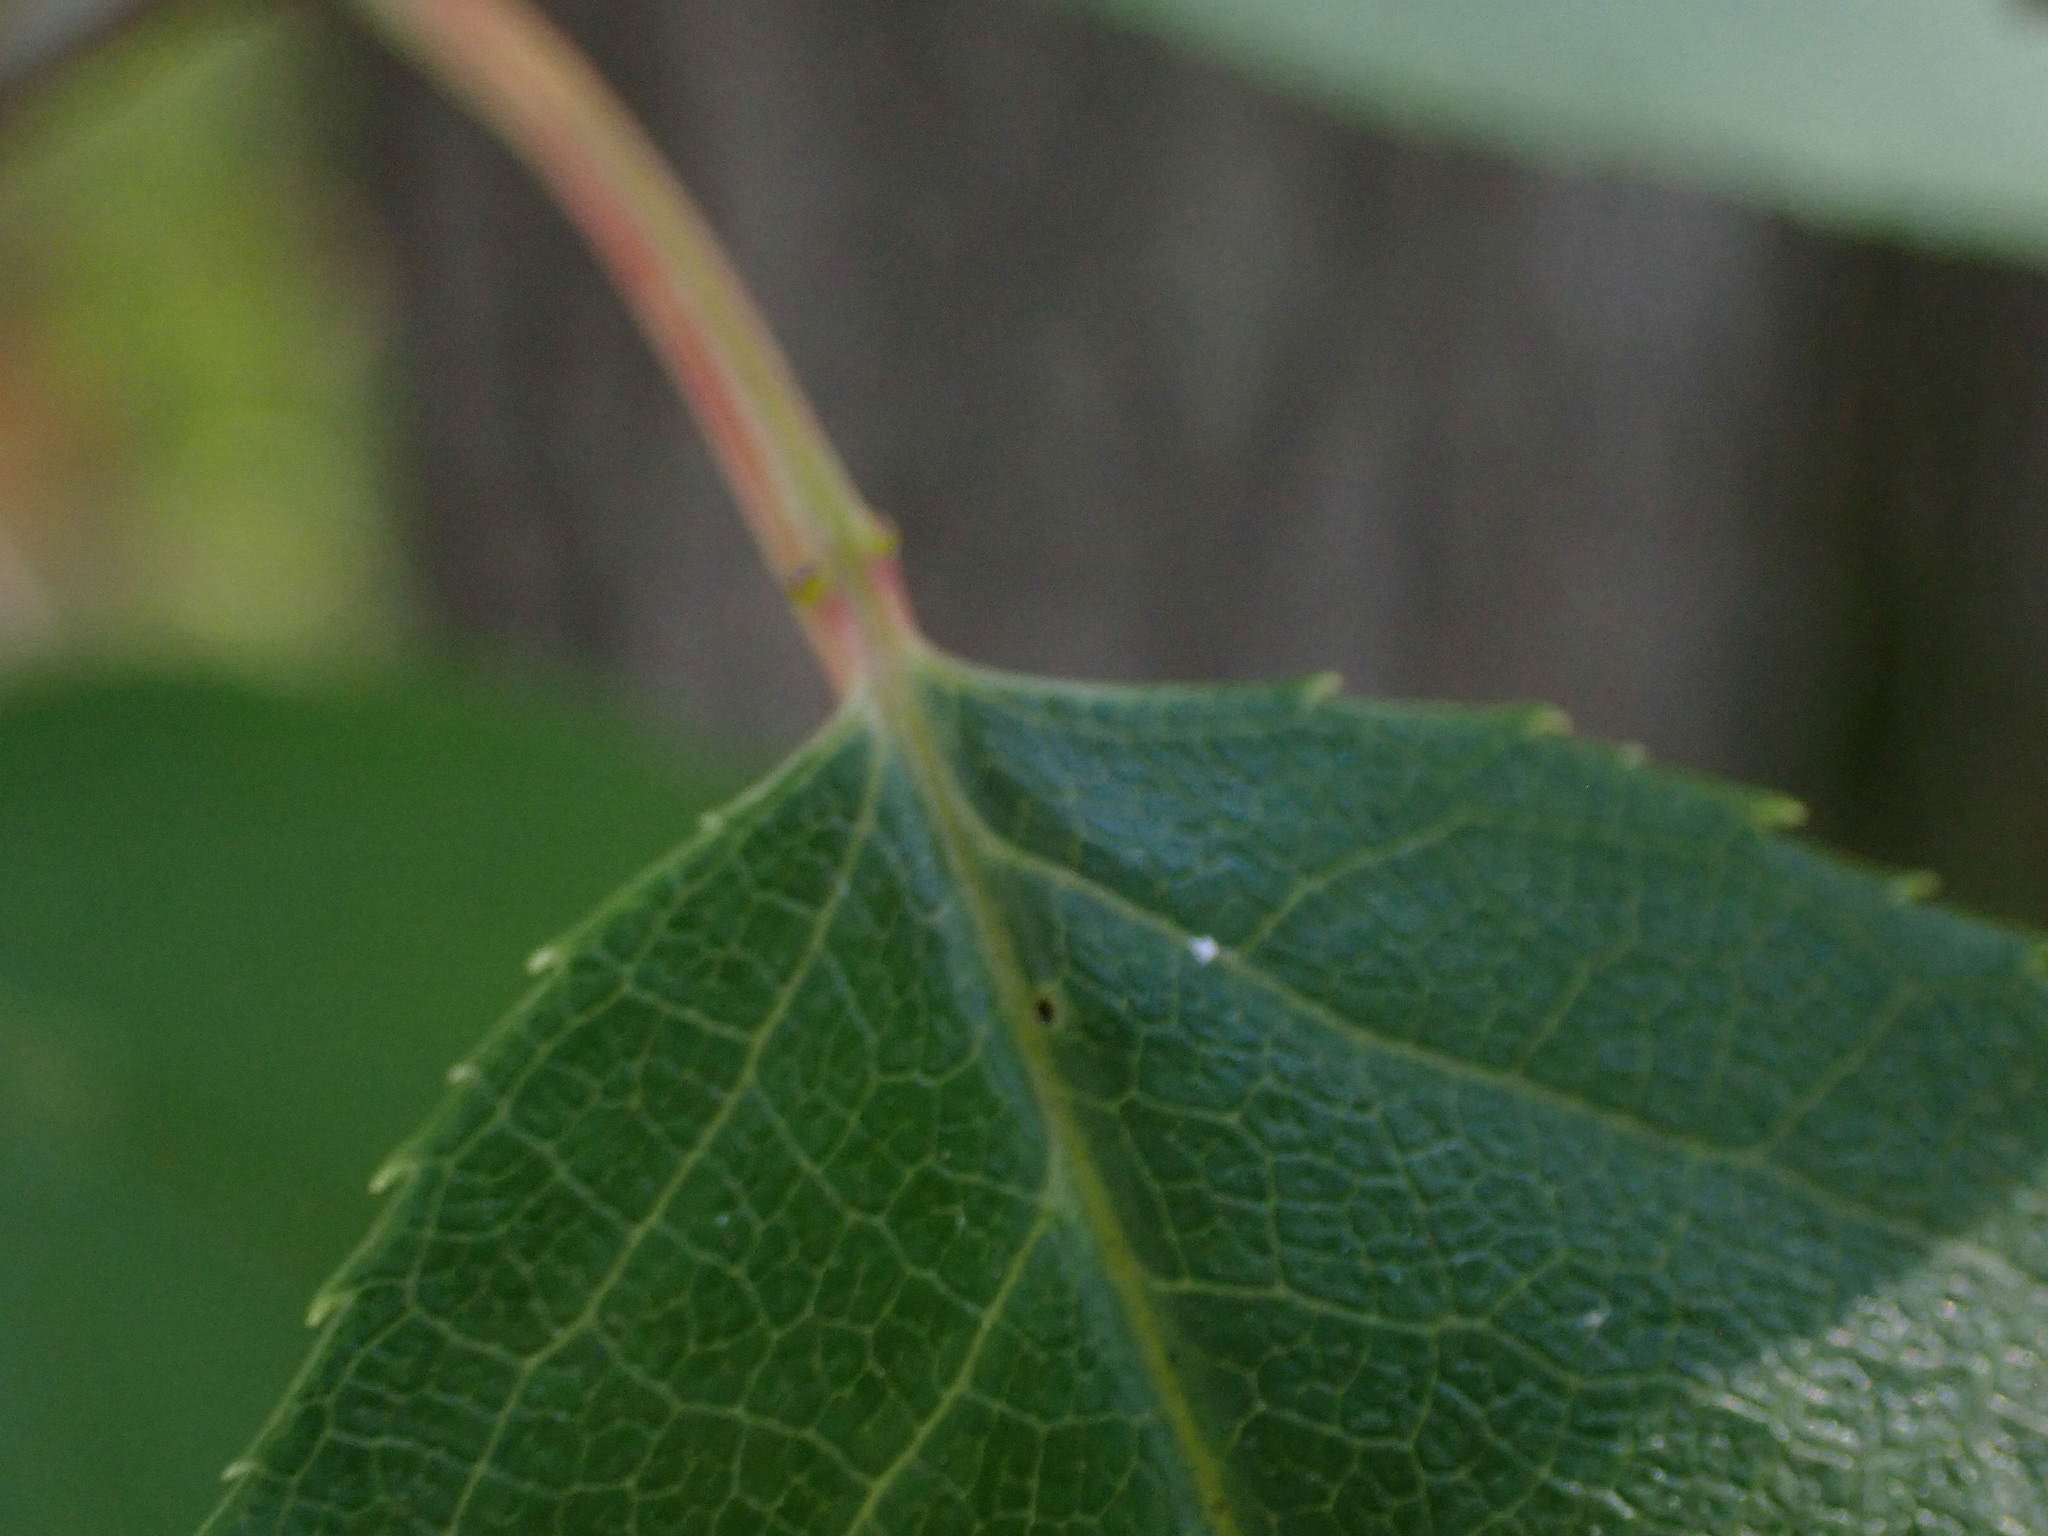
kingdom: Plantae
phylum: Tracheophyta
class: Magnoliopsida
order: Rosales
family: Rosaceae
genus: Prunus
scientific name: Prunus virginiana
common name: Chokecherry
